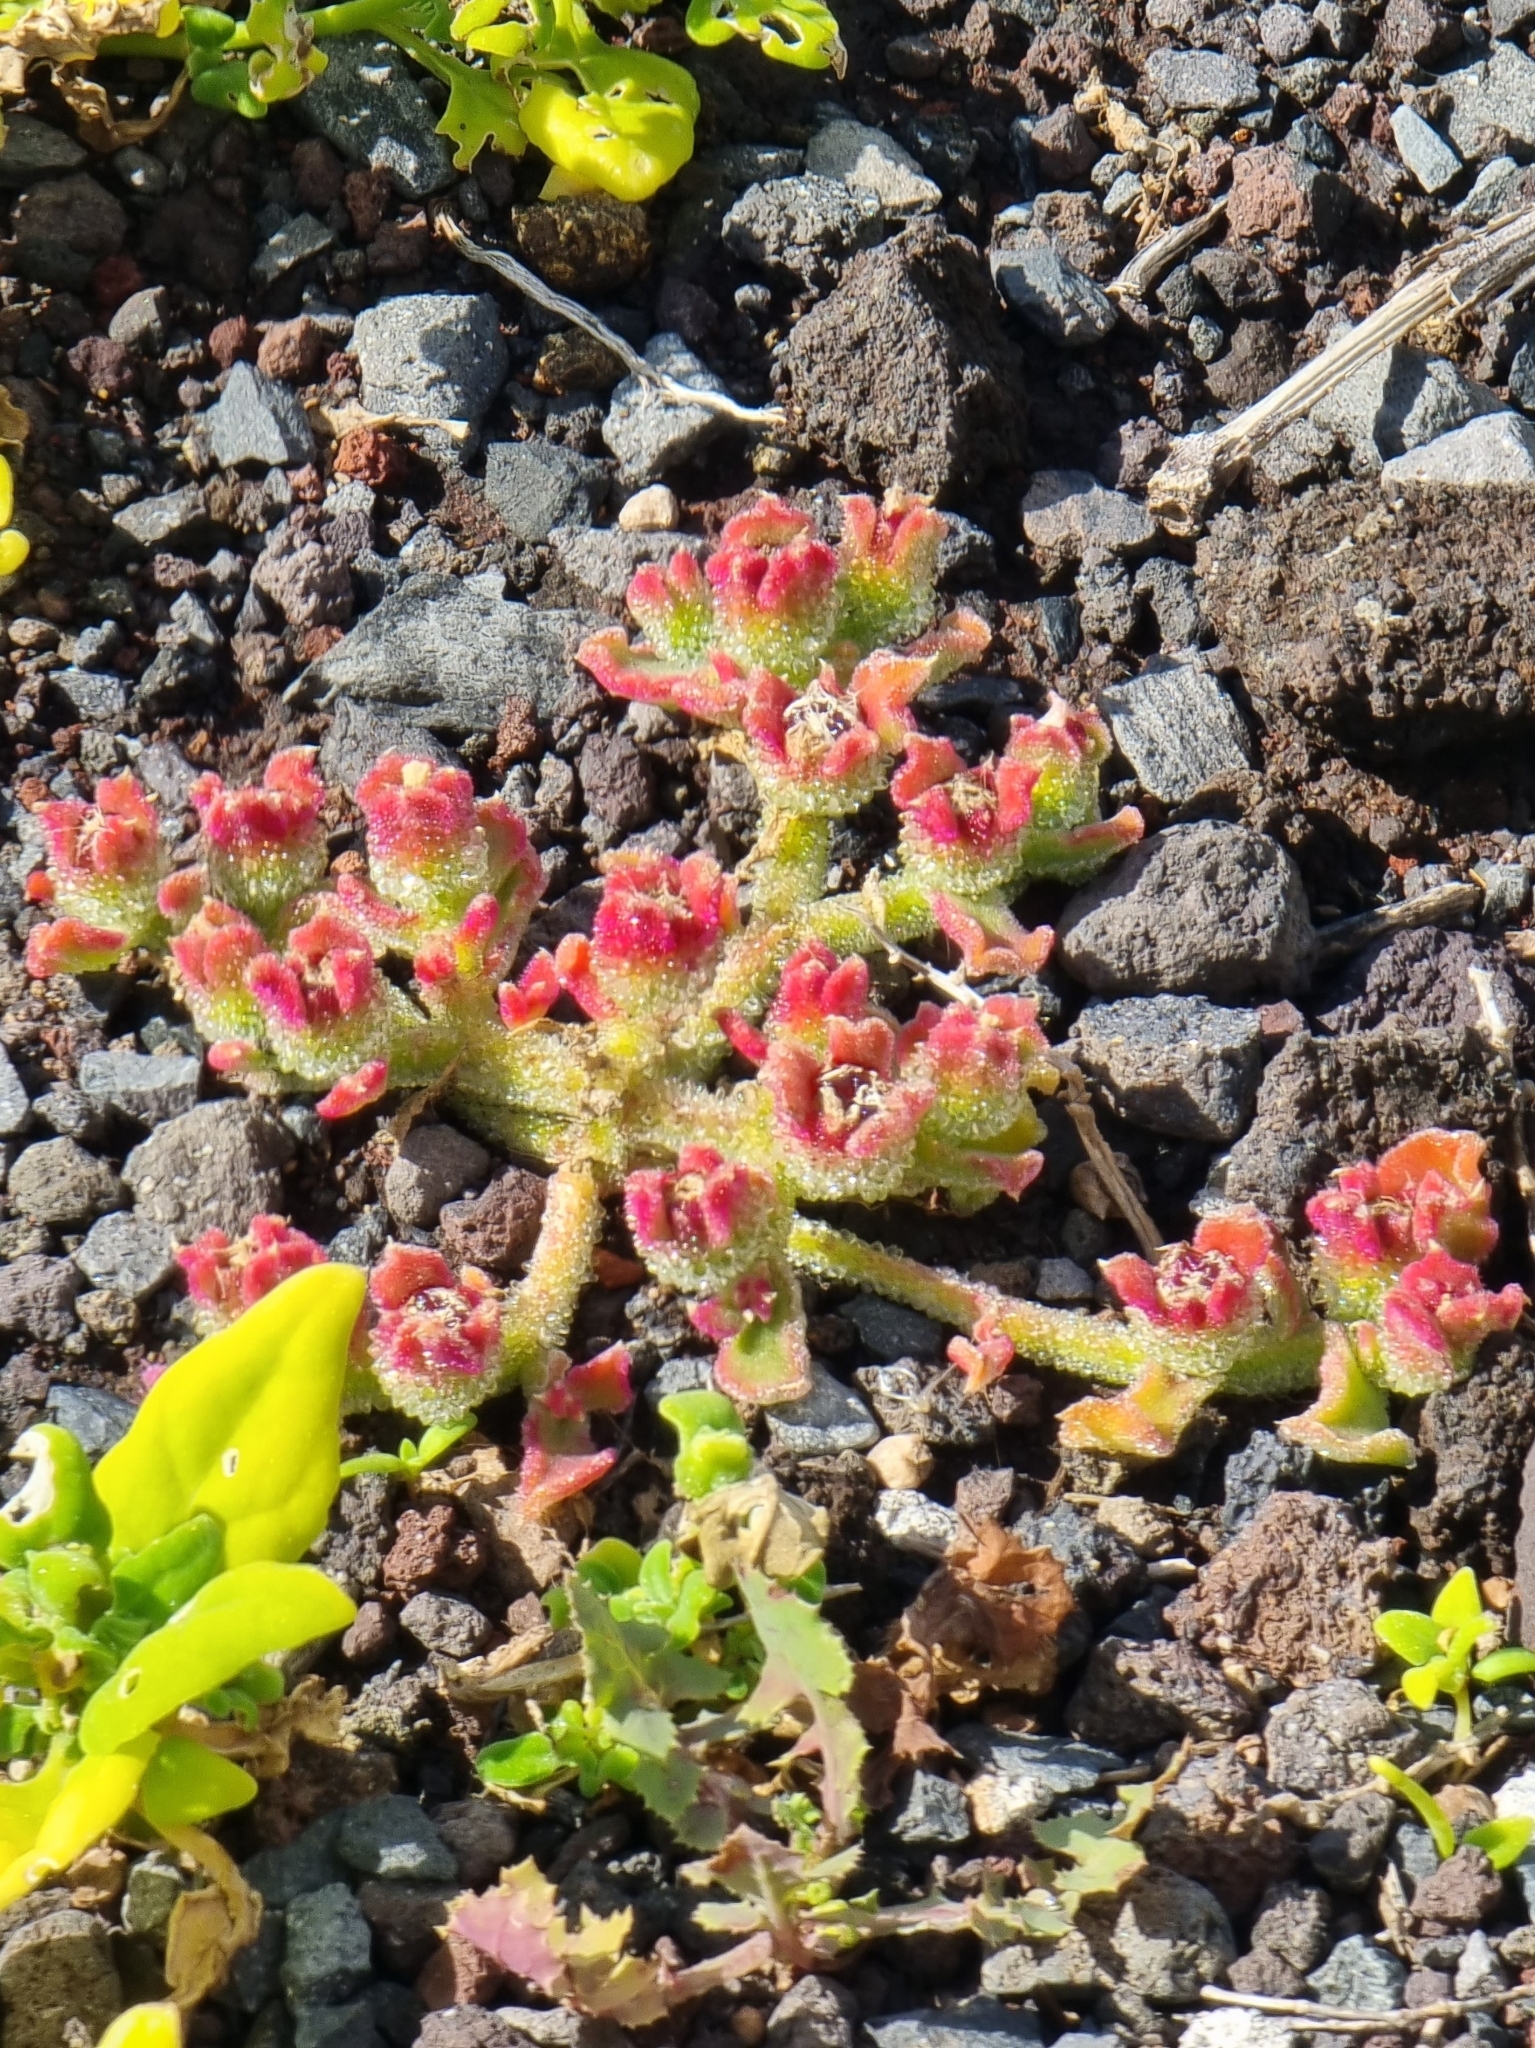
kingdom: Plantae
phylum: Tracheophyta
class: Magnoliopsida
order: Caryophyllales
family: Aizoaceae
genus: Mesembryanthemum
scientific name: Mesembryanthemum crystallinum
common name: Common iceplant
